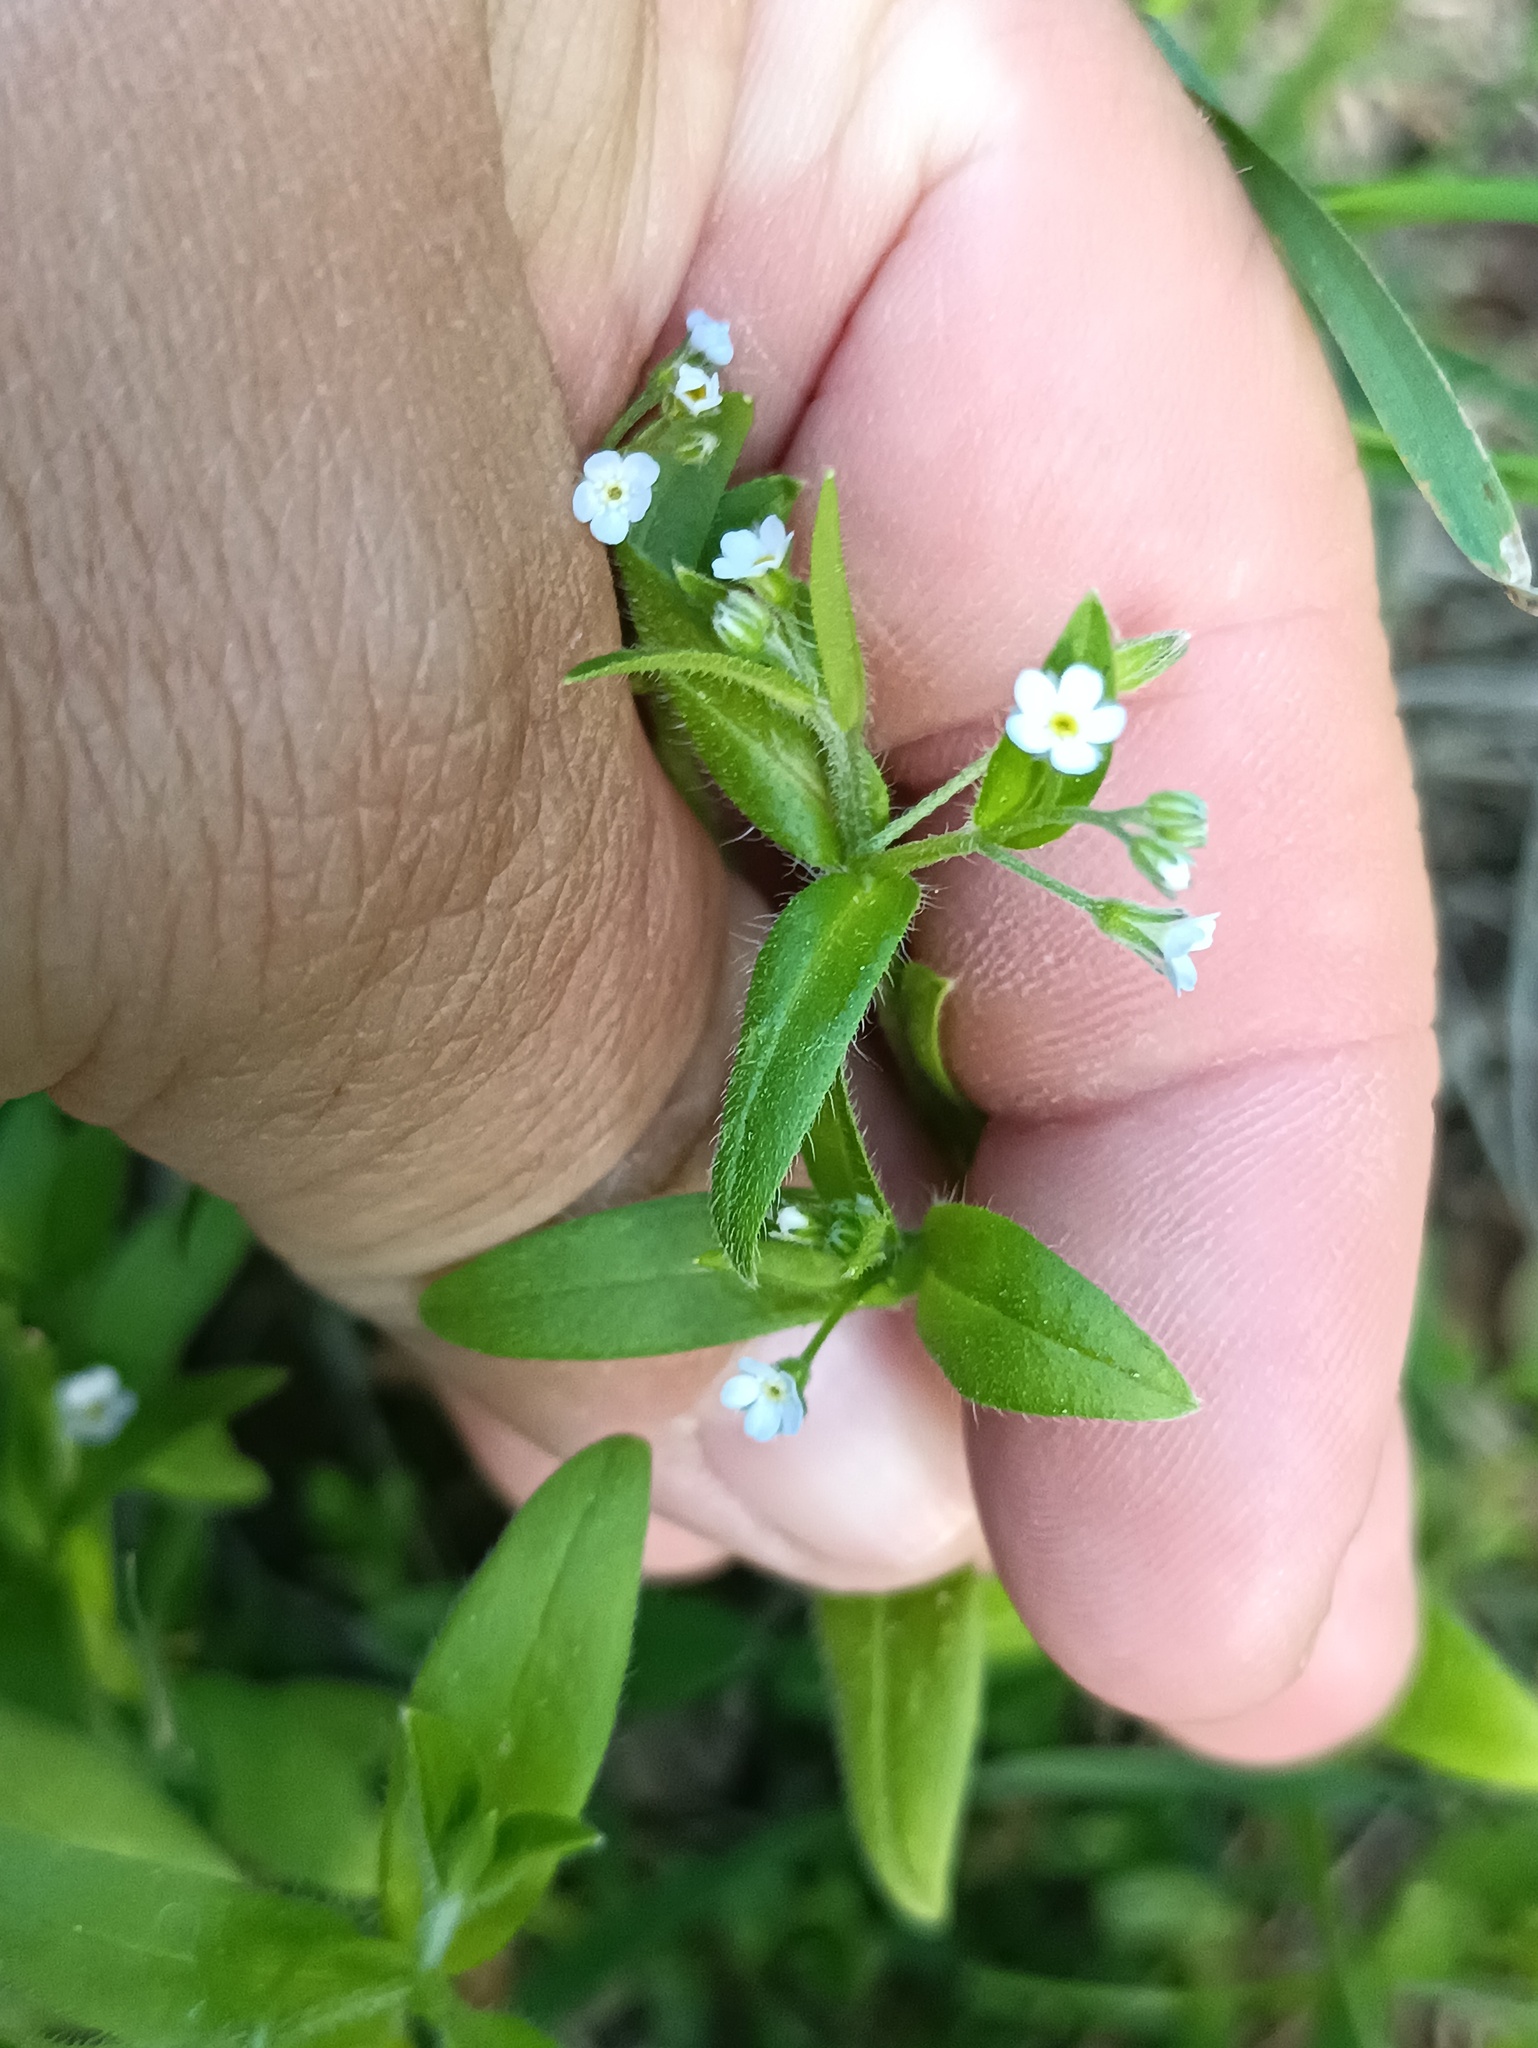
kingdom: Plantae
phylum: Tracheophyta
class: Magnoliopsida
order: Boraginales
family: Boraginaceae
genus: Myosotis
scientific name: Myosotis sparsiflora
